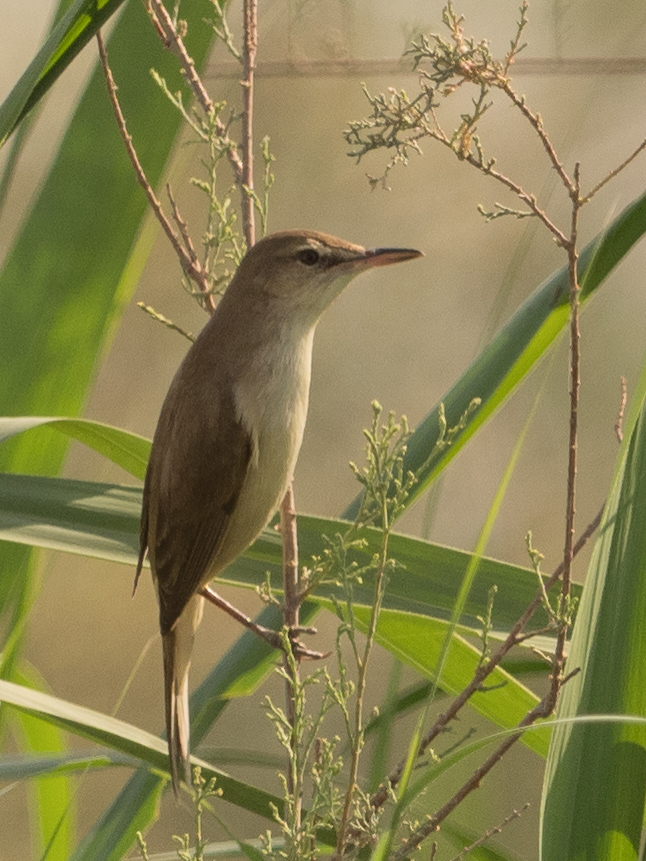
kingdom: Animalia
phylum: Chordata
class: Aves
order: Passeriformes
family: Acrocephalidae
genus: Acrocephalus
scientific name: Acrocephalus arundinaceus
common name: Great reed warbler
